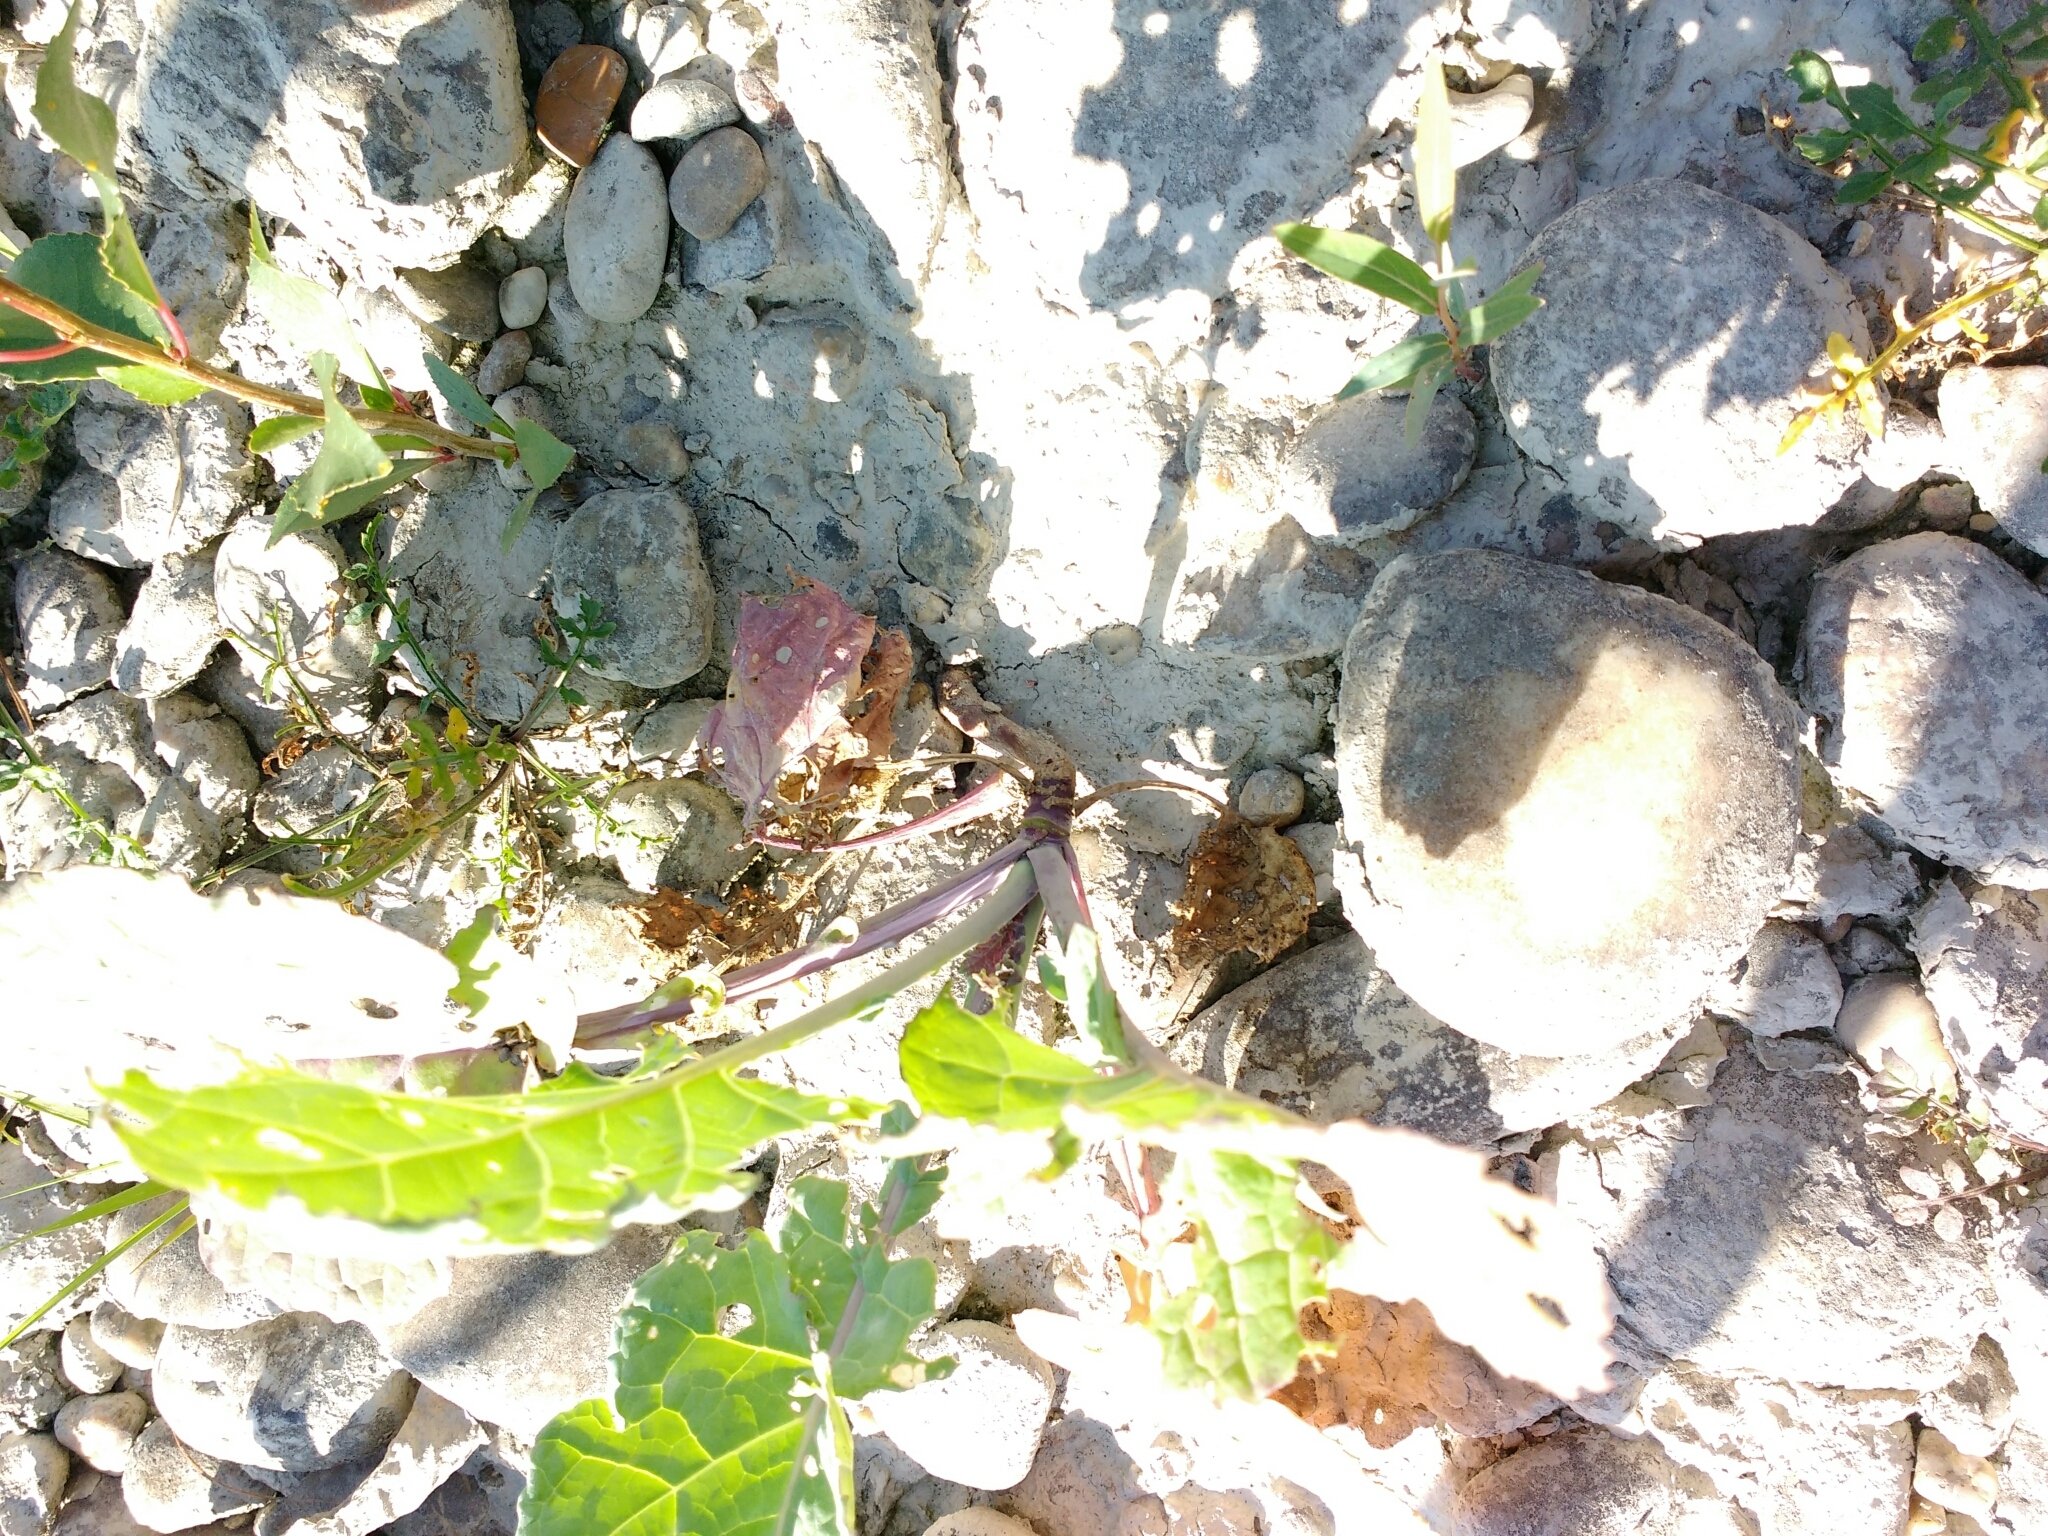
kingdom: Plantae
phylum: Tracheophyta
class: Magnoliopsida
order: Brassicales
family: Brassicaceae
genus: Brassica
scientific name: Brassica oleracea
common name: Cabbage
